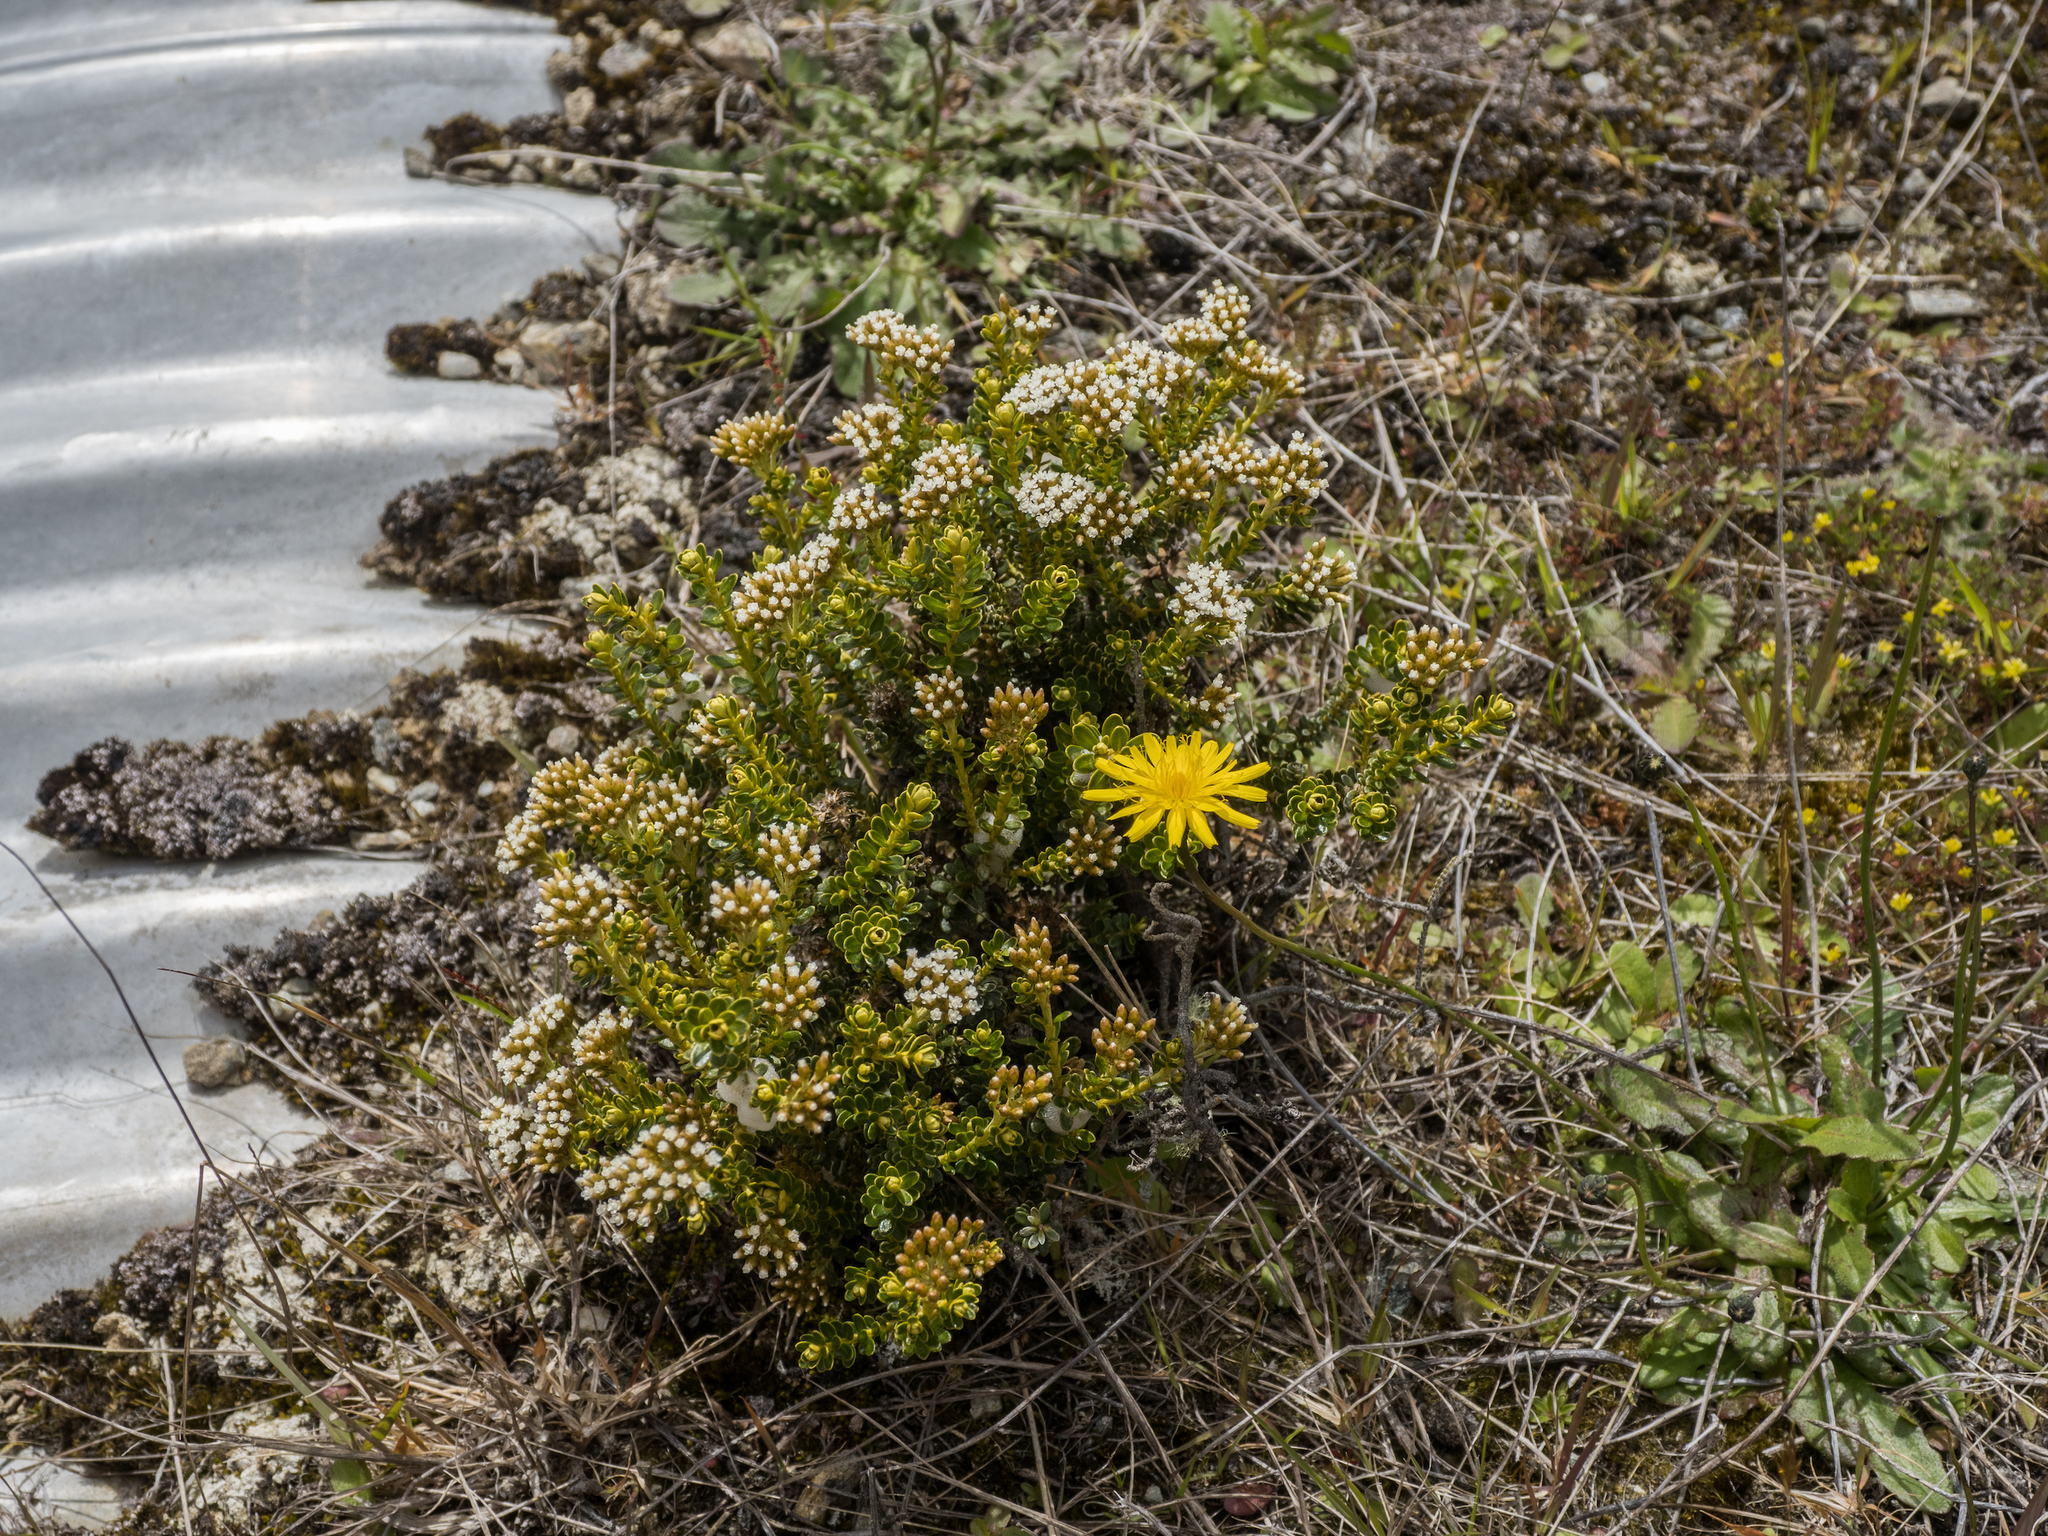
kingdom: Plantae
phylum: Tracheophyta
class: Magnoliopsida
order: Asterales
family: Asteraceae
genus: Ozothamnus
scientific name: Ozothamnus leptophyllus
